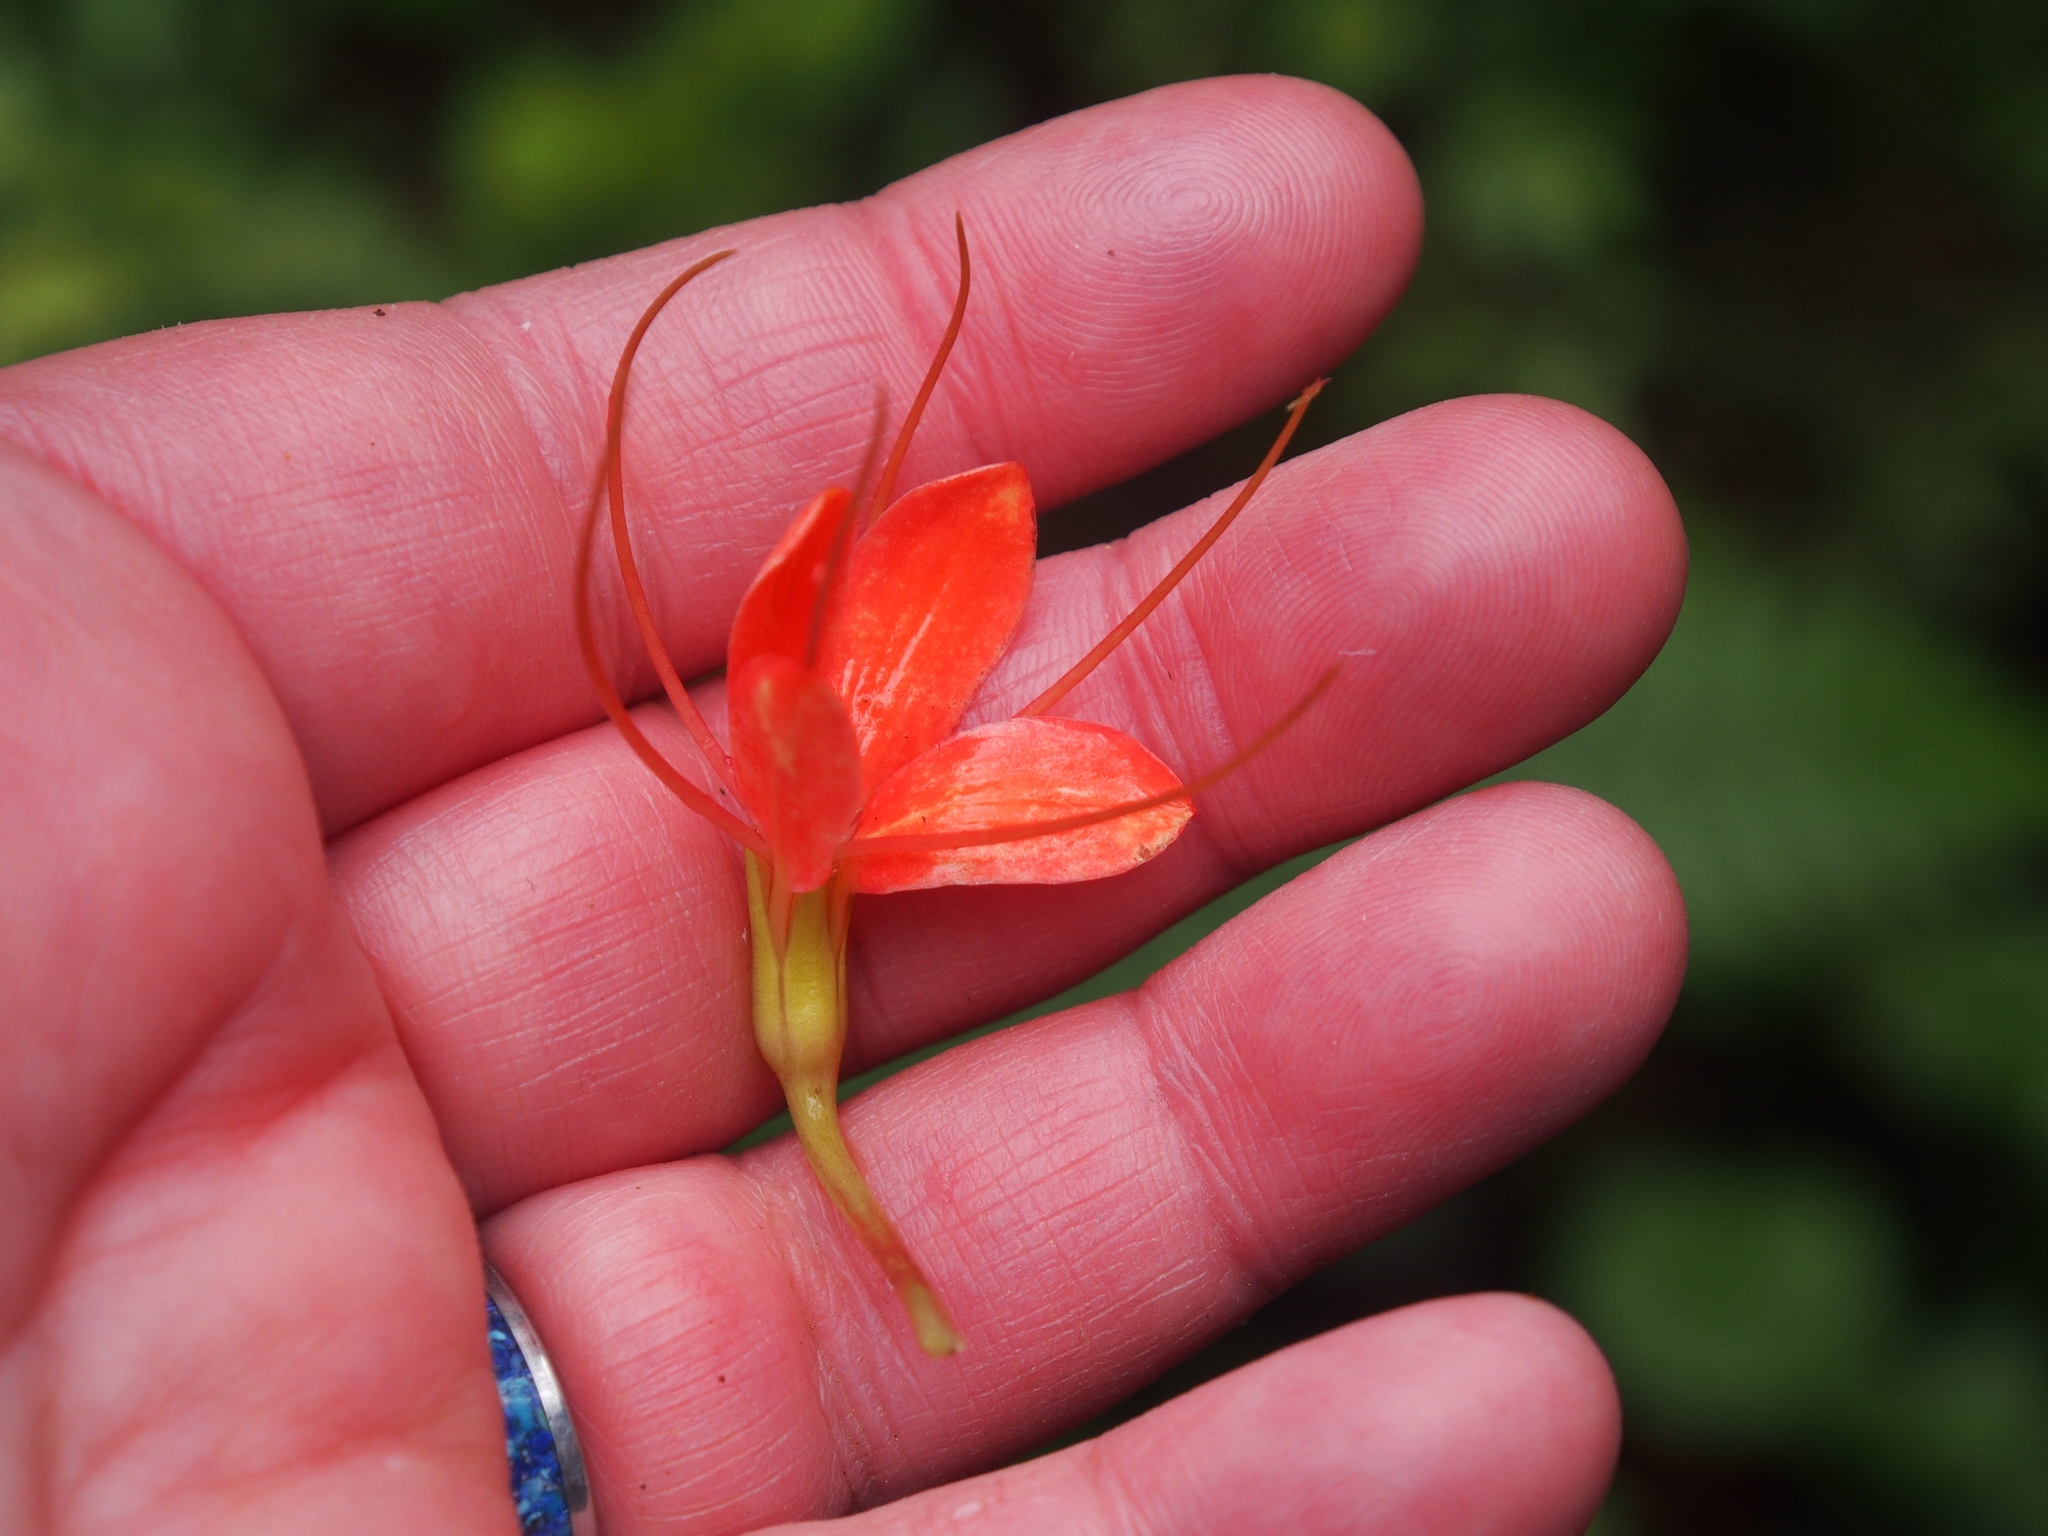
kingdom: Plantae
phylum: Tracheophyta
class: Magnoliopsida
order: Brassicales
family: Cleomaceae
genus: Podandrogyne
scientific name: Podandrogyne decipiens
